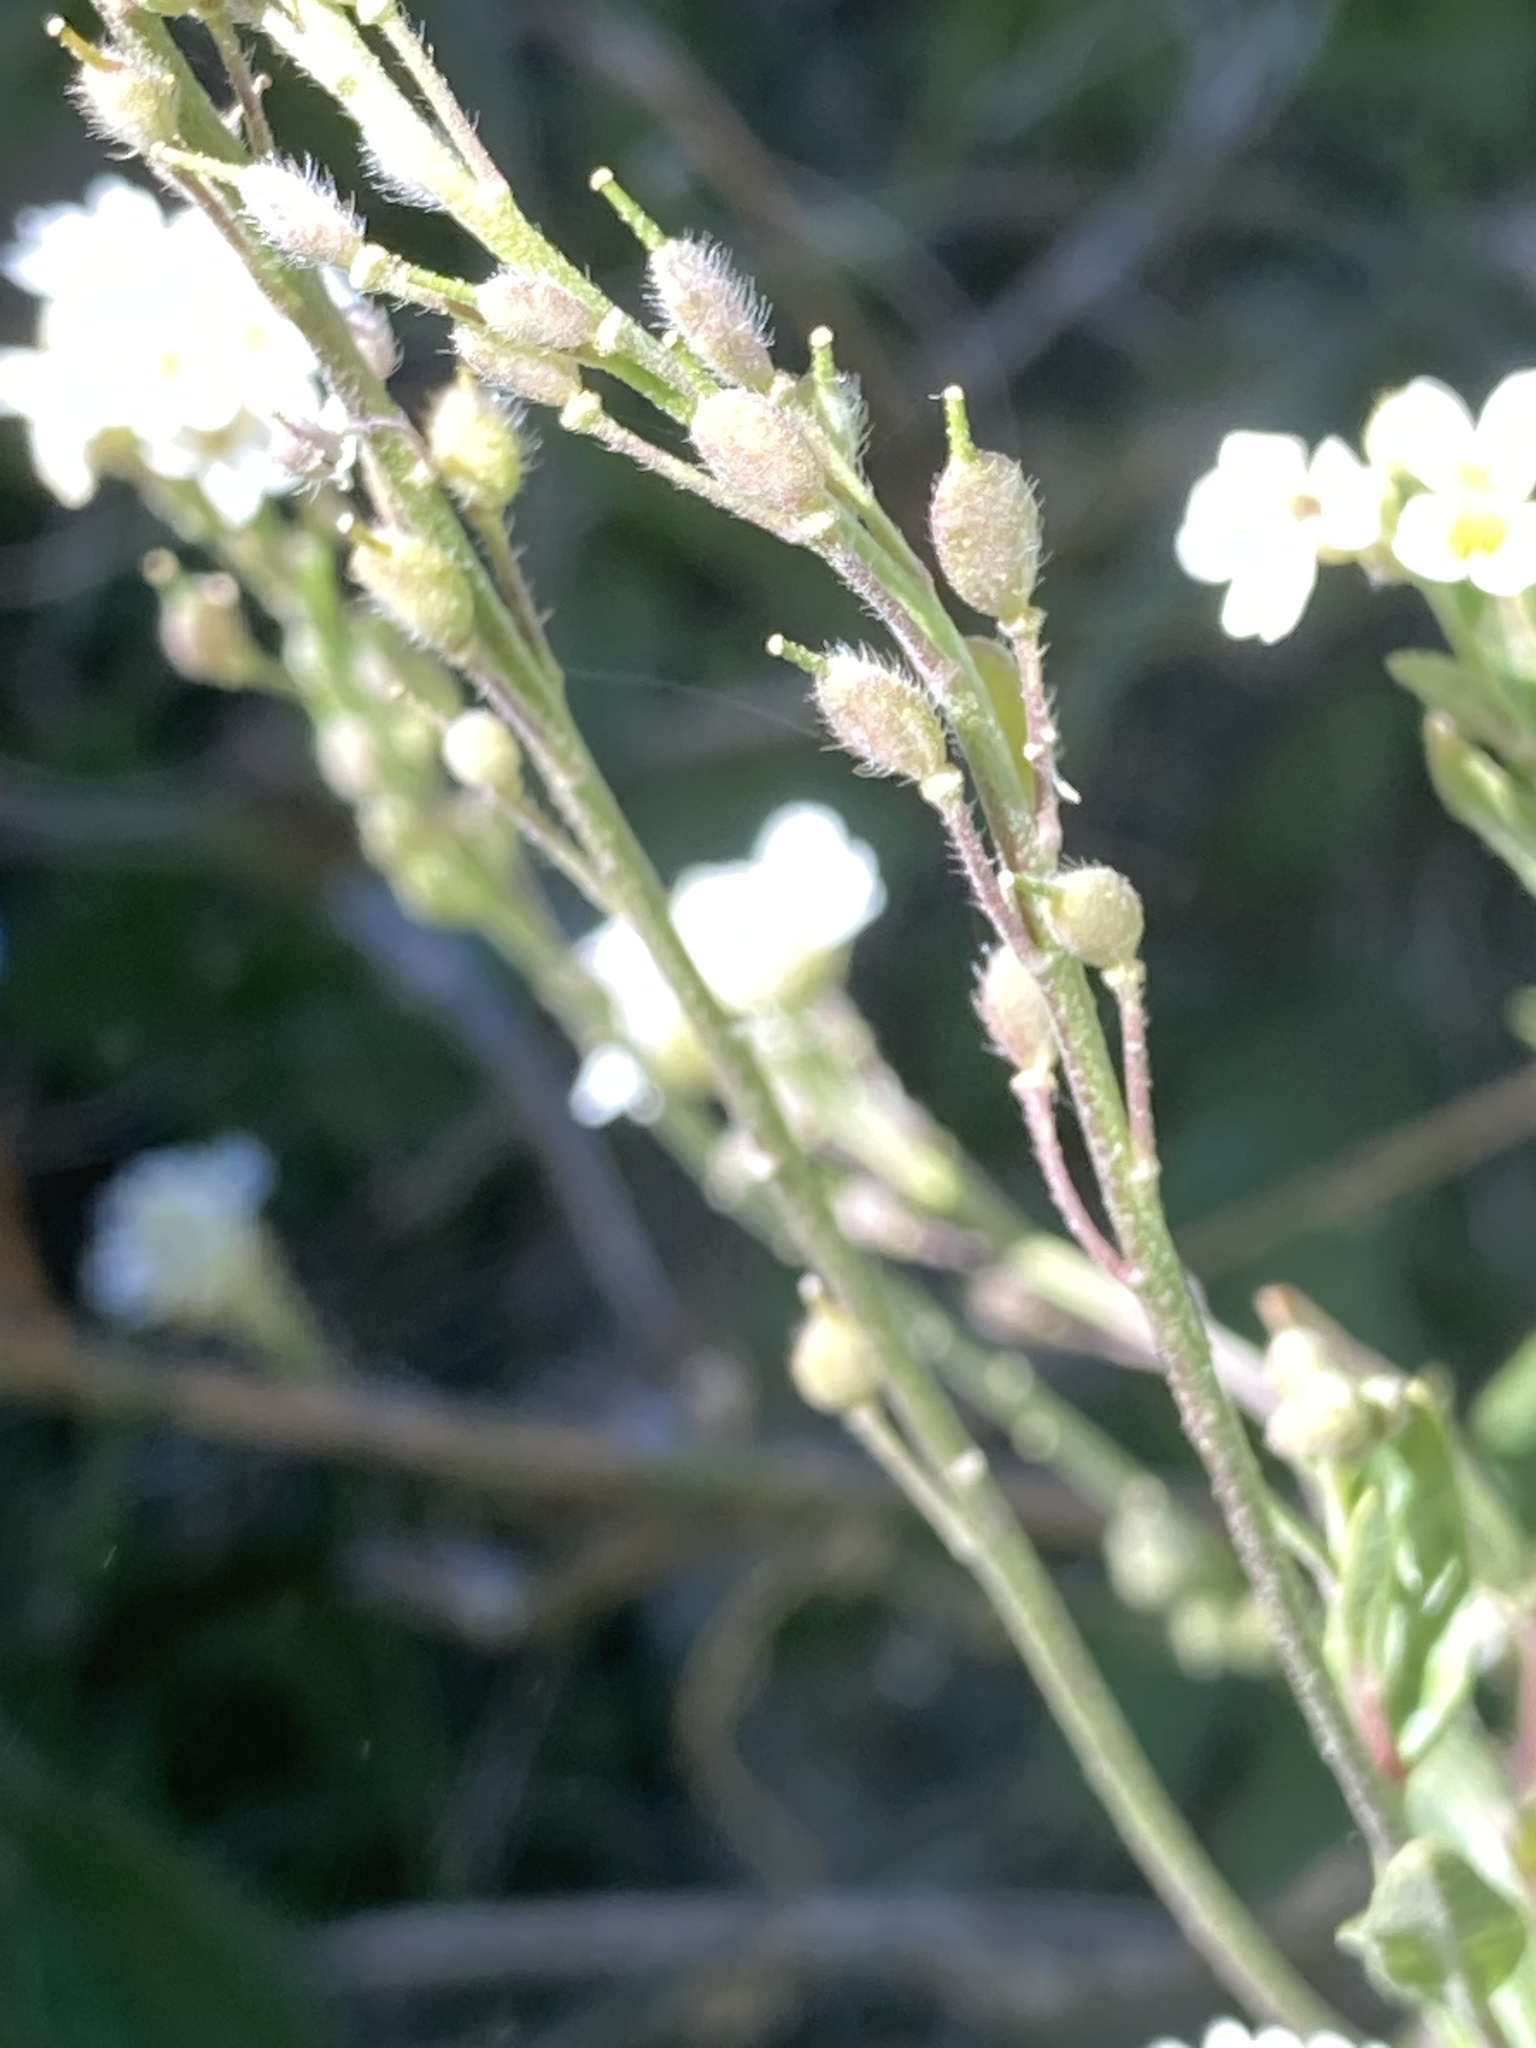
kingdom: Plantae
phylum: Tracheophyta
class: Magnoliopsida
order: Brassicales
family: Brassicaceae
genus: Berteroa
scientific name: Berteroa incana
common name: Hoary alison
